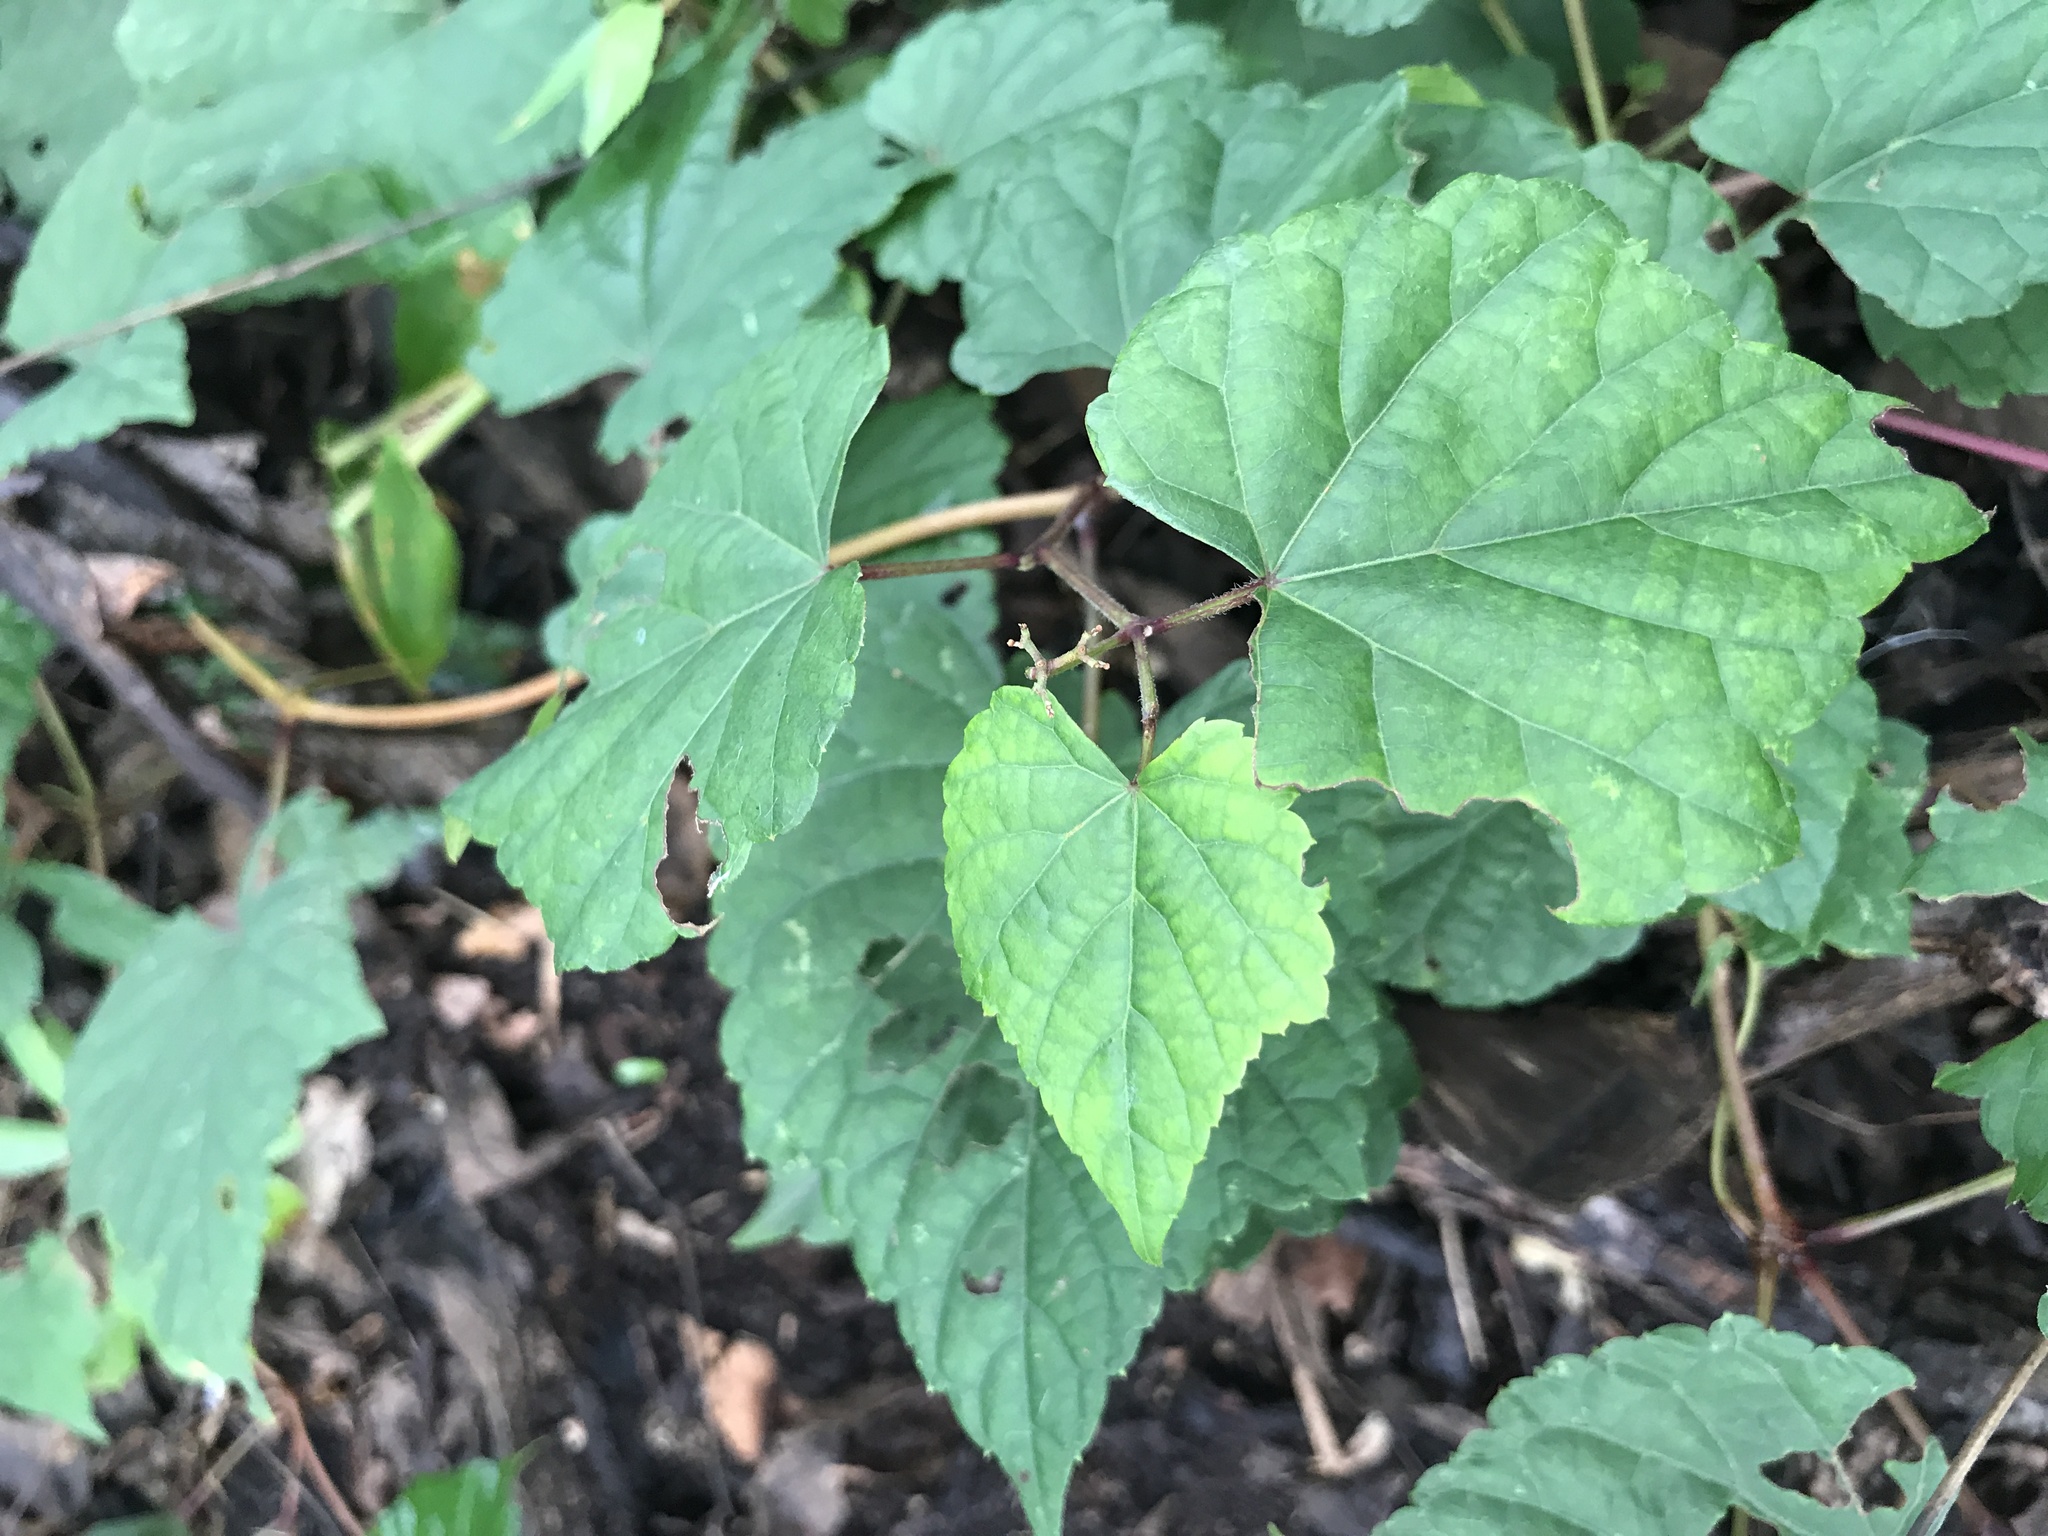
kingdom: Plantae
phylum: Tracheophyta
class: Magnoliopsida
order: Vitales
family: Vitaceae
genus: Ampelopsis
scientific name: Ampelopsis glandulosa
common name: Amur peppervine
